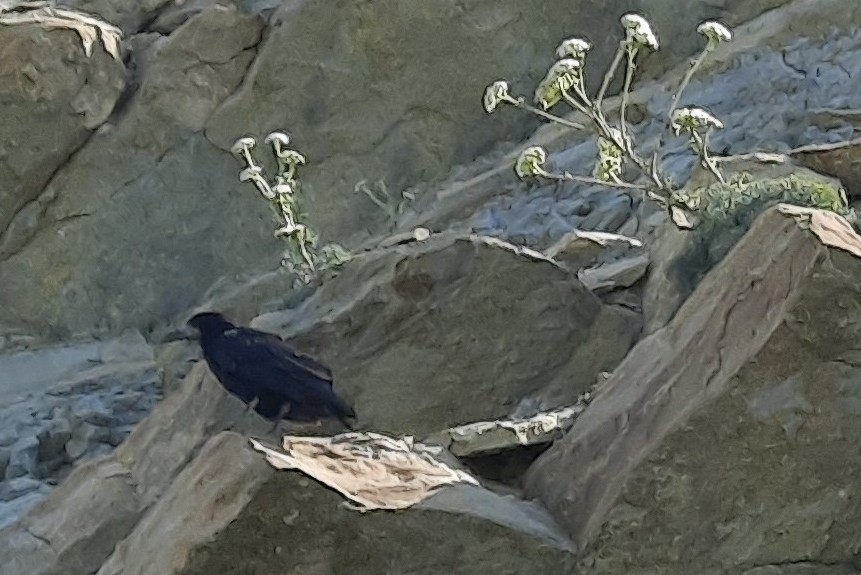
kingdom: Animalia
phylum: Chordata
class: Aves
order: Passeriformes
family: Corvidae
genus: Corvus
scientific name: Corvus frugilegus
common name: Rook
